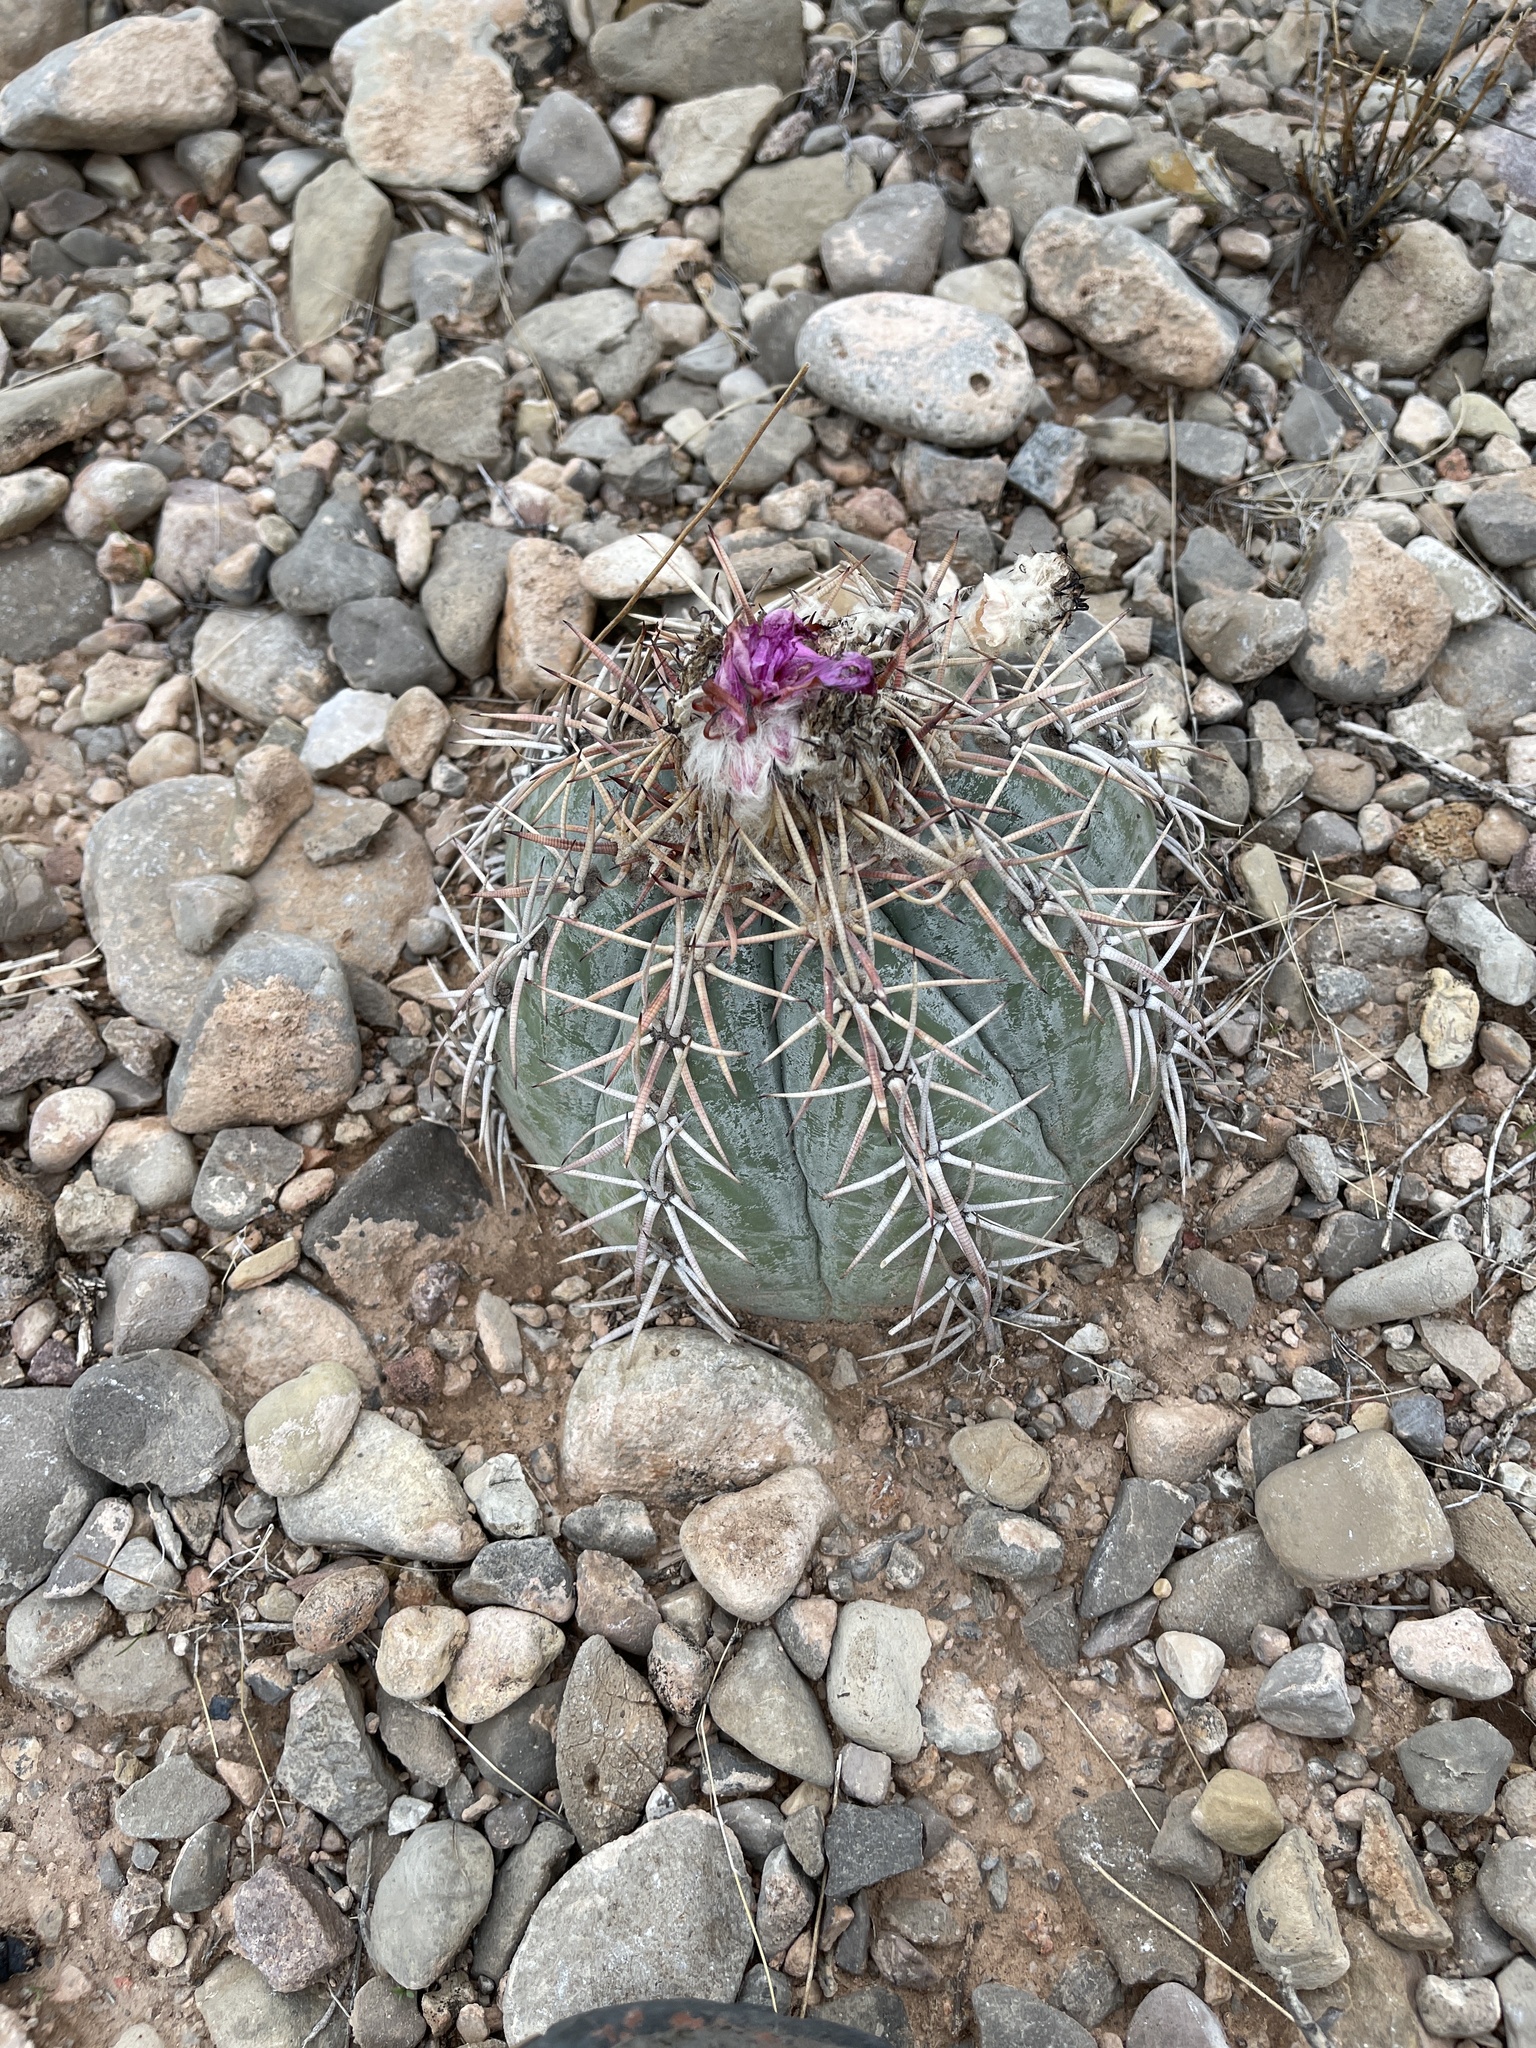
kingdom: Plantae
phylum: Tracheophyta
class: Magnoliopsida
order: Caryophyllales
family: Cactaceae
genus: Echinocactus
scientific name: Echinocactus horizonthalonius
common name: Devilshead
